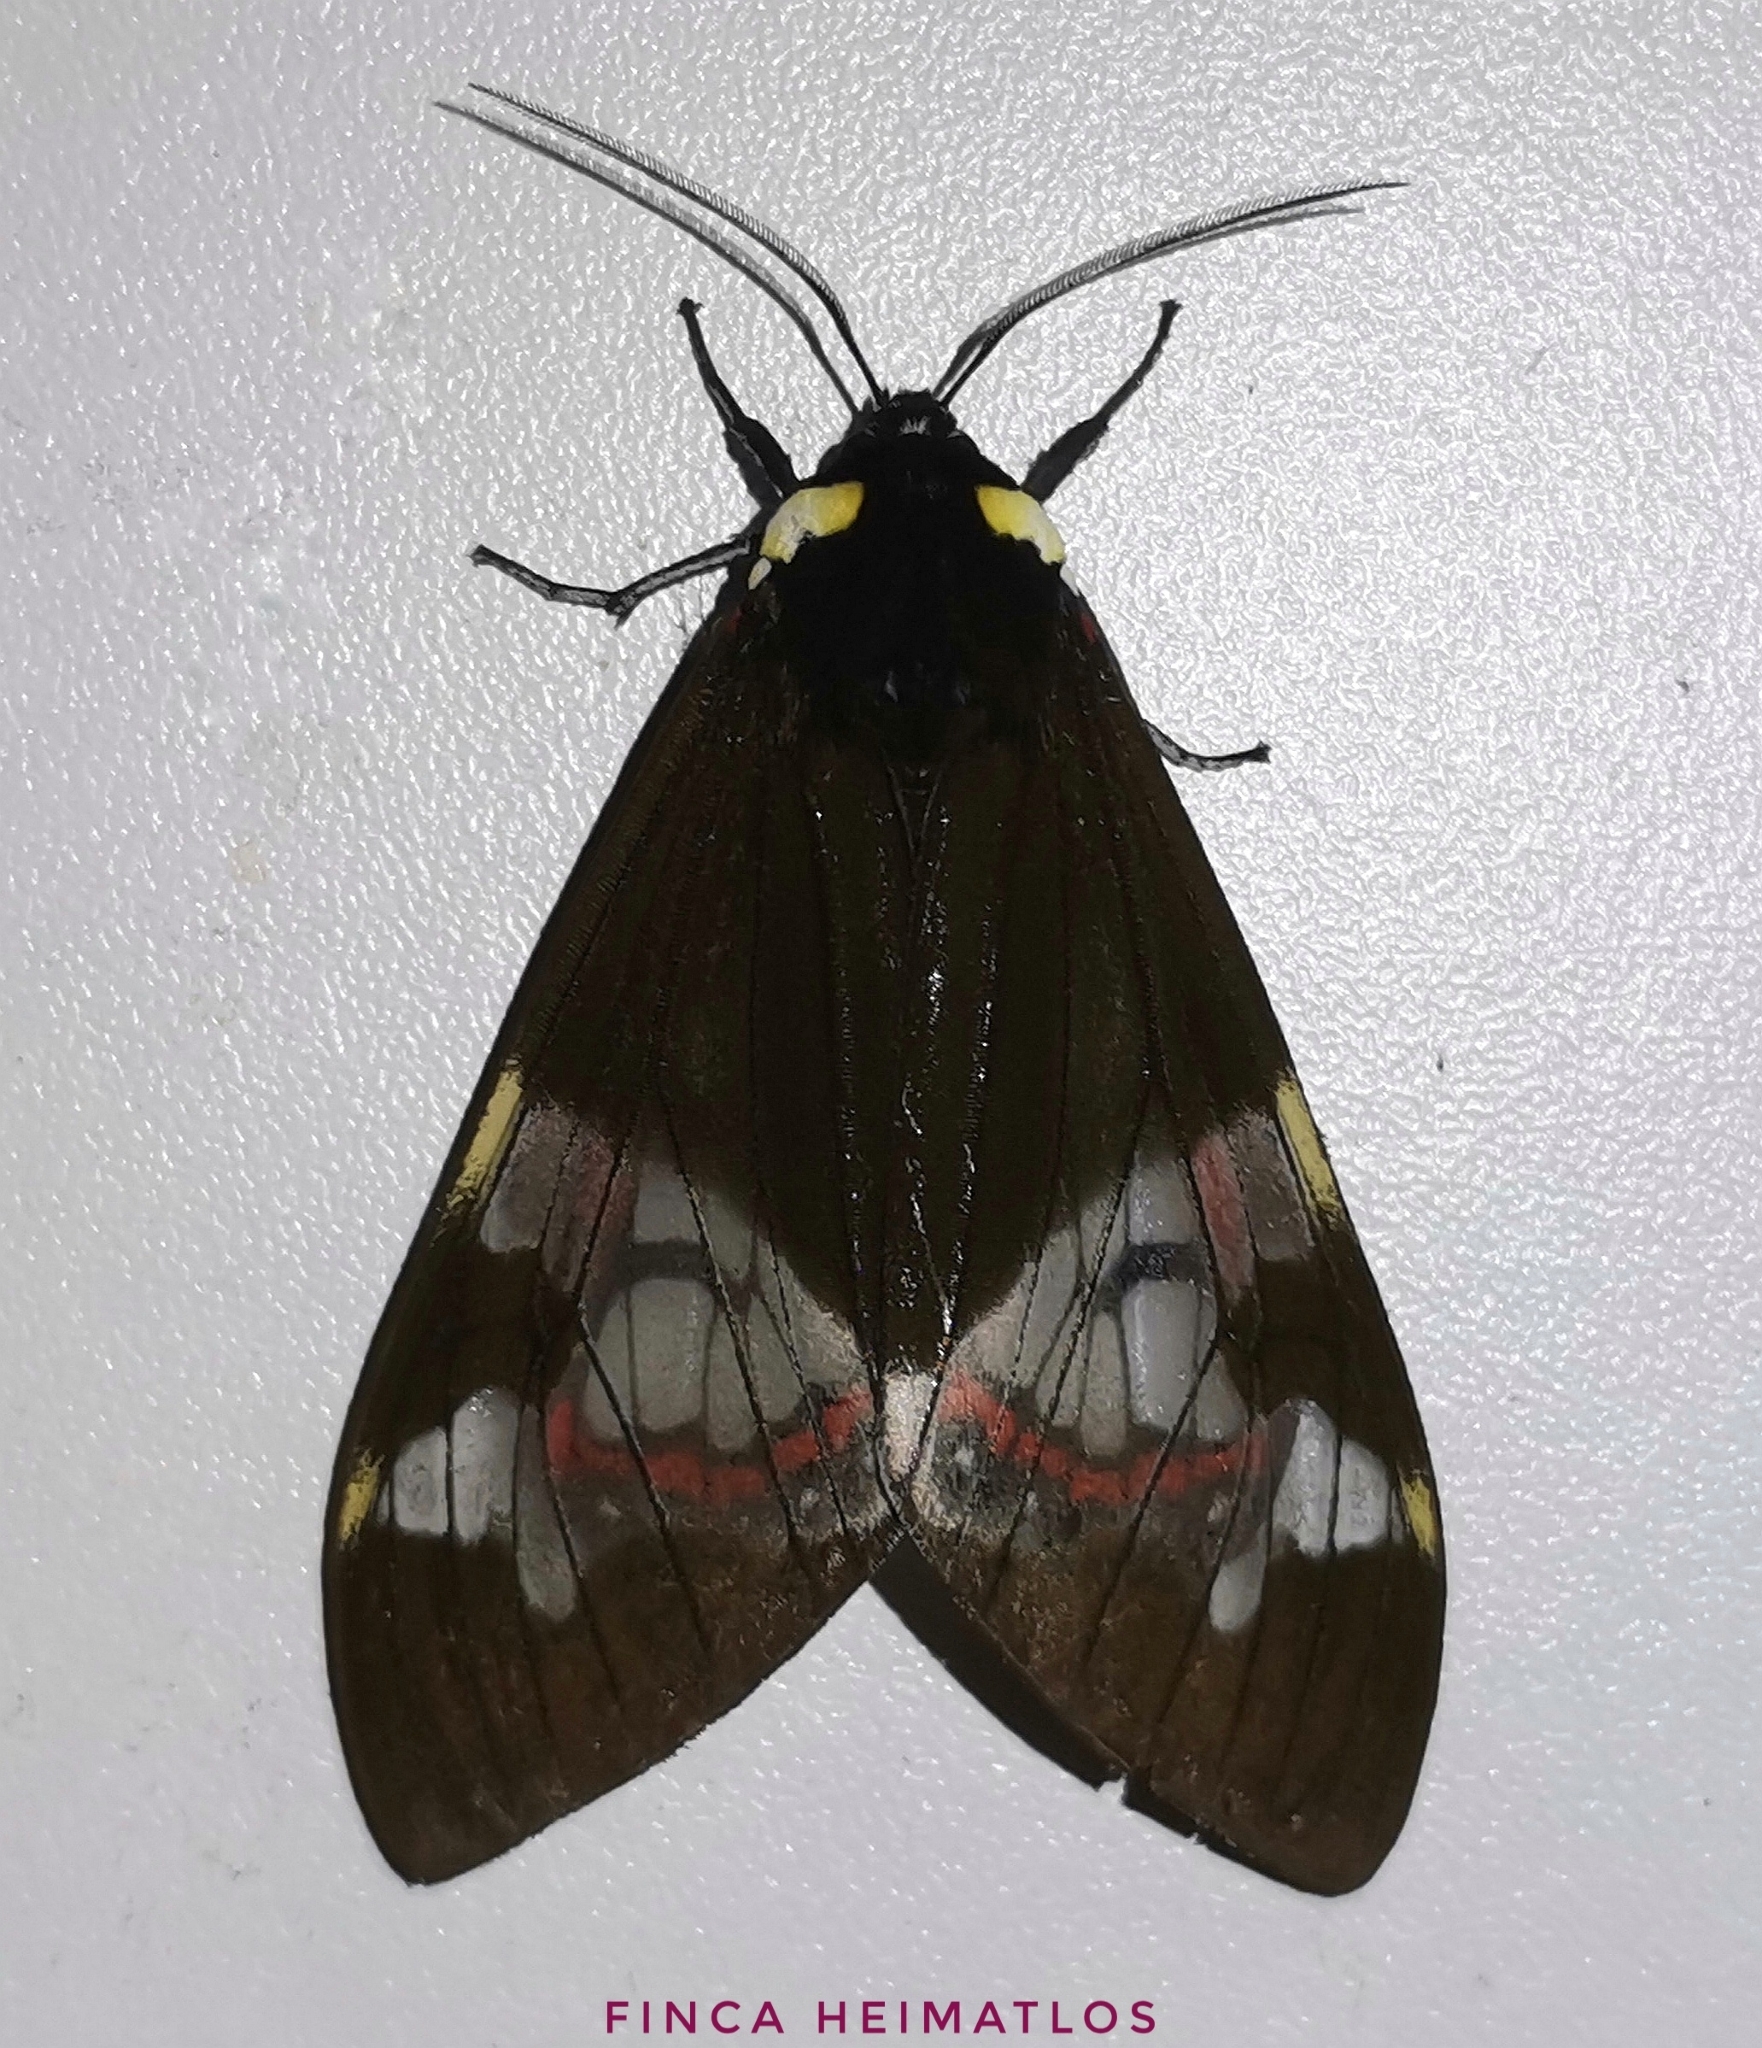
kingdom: Animalia
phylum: Arthropoda
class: Insecta
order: Lepidoptera
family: Erebidae
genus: Dysschema
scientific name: Dysschema marginalis
